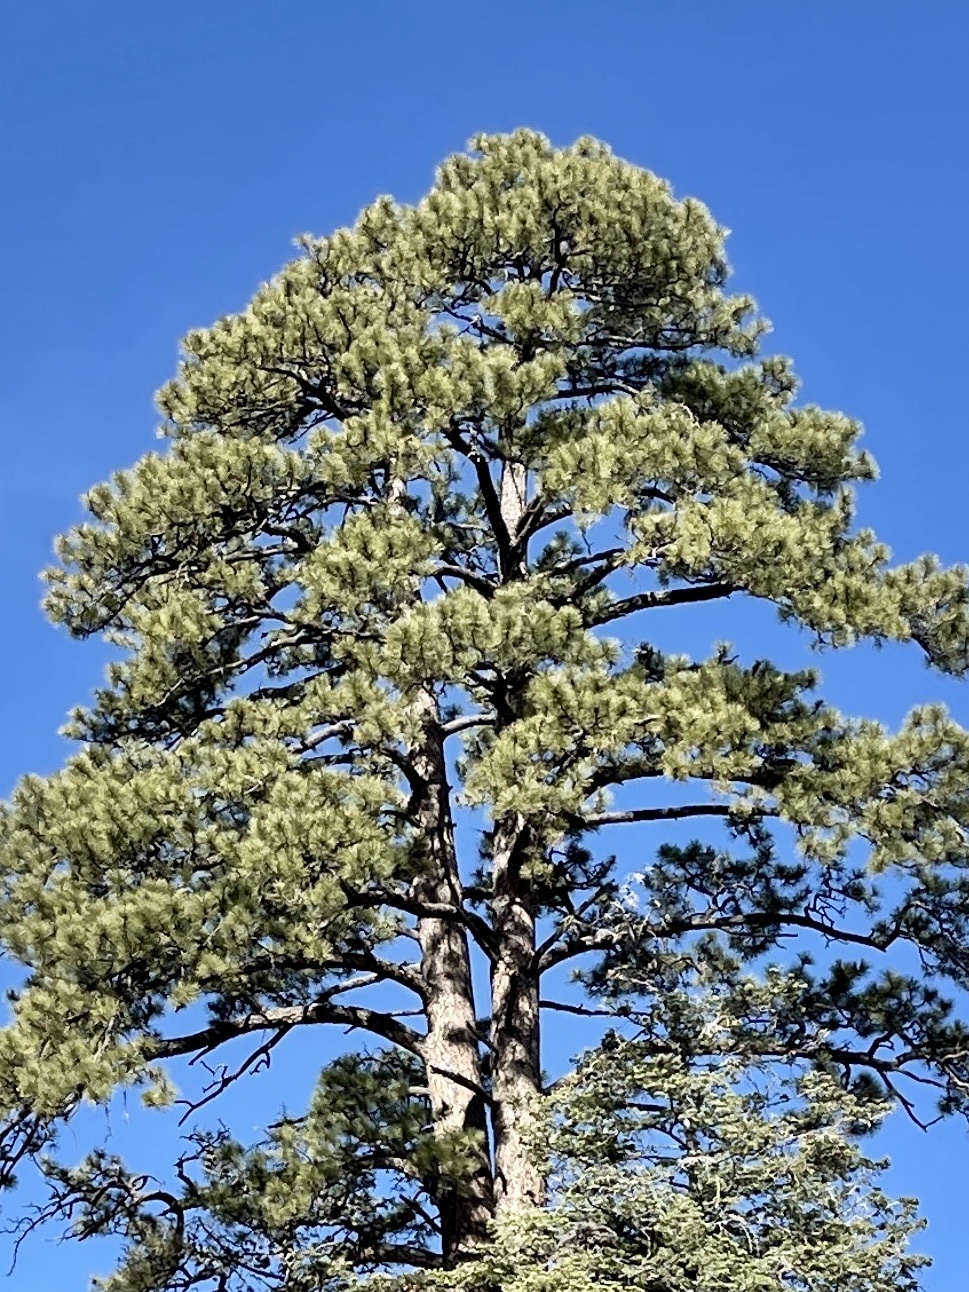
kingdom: Plantae
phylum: Tracheophyta
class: Pinopsida
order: Pinales
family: Pinaceae
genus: Pinus
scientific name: Pinus ponderosa
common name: Western yellow-pine
